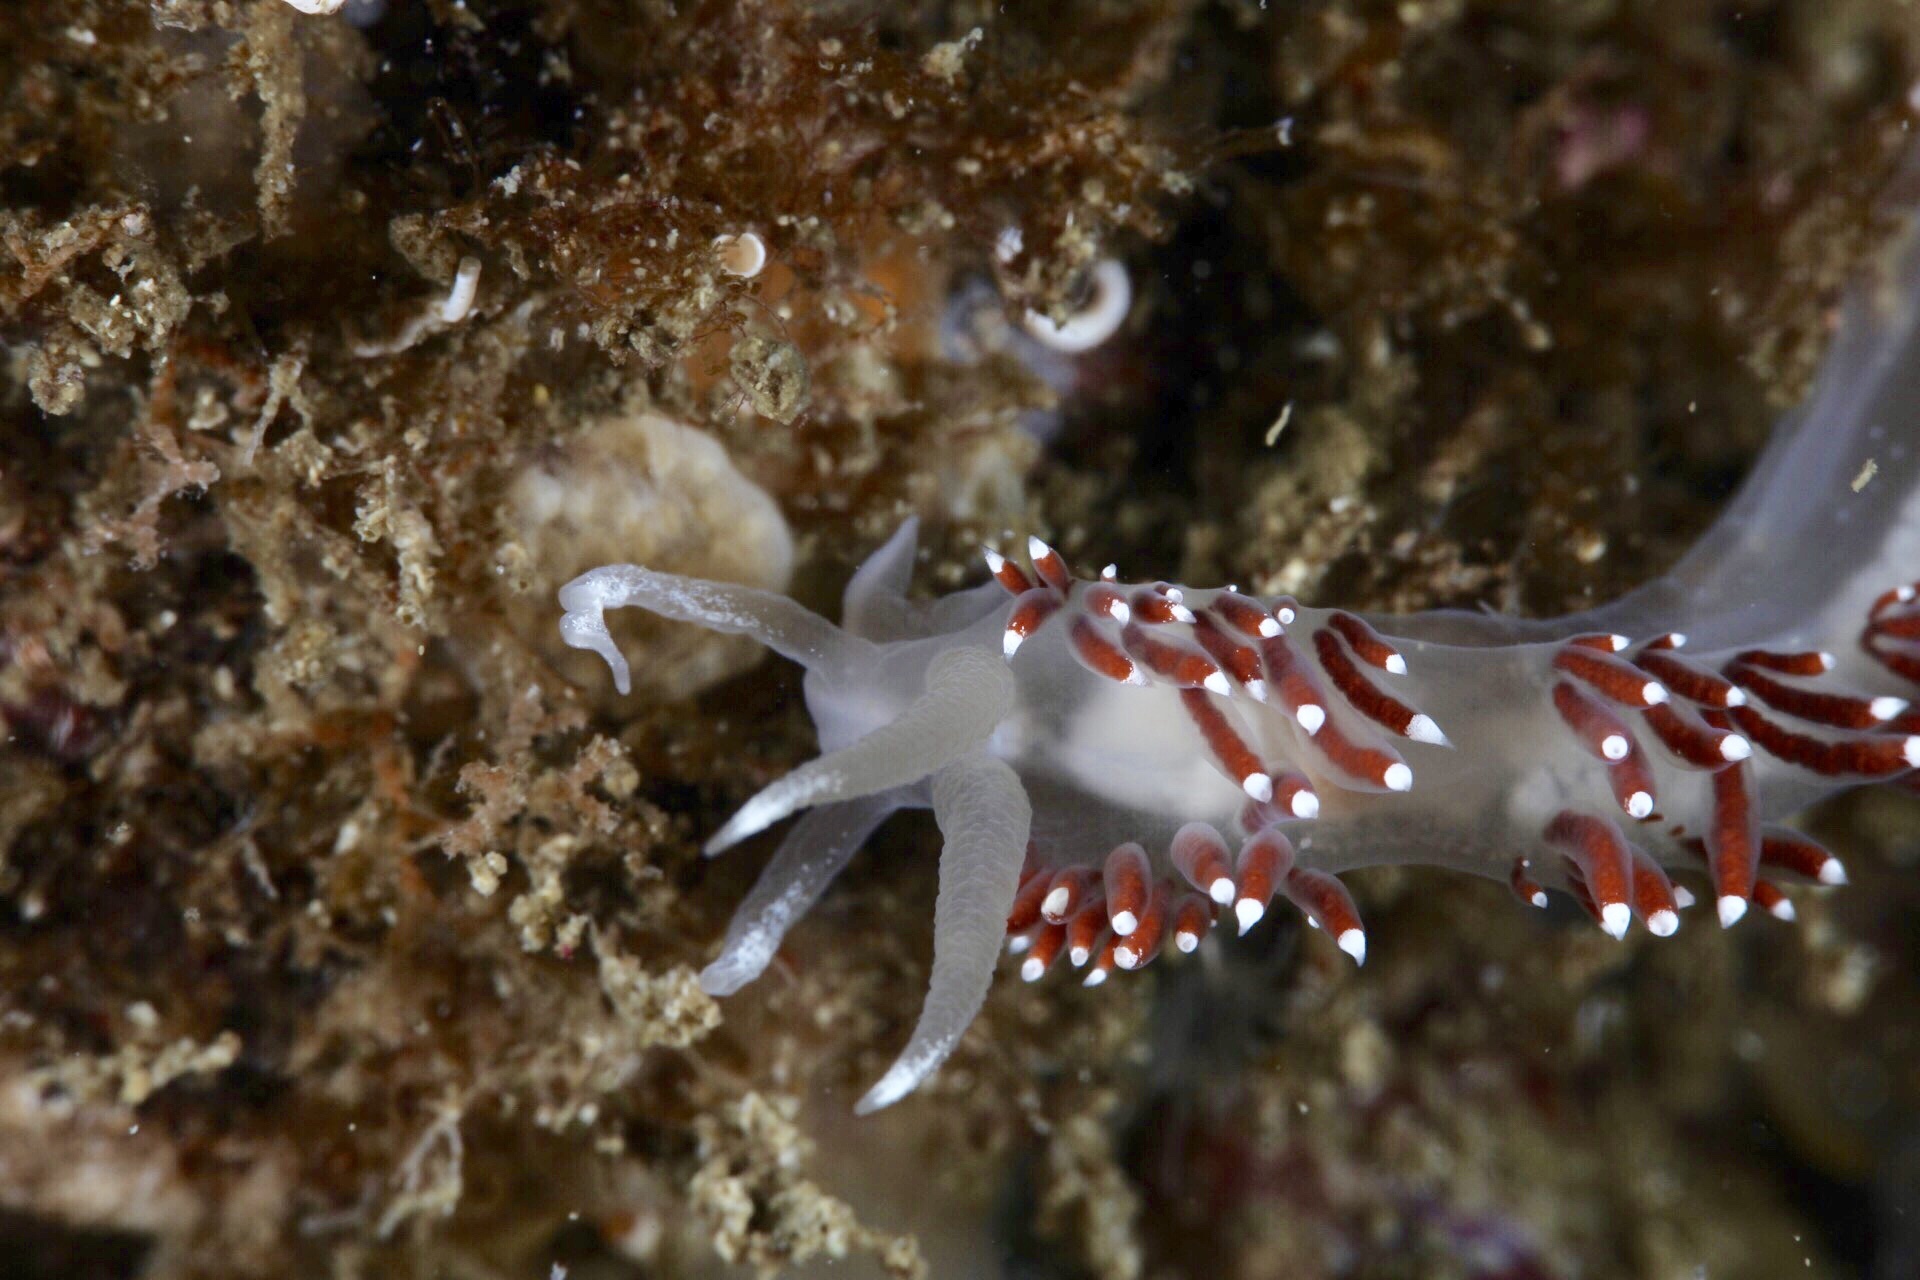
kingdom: Animalia
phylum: Mollusca
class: Gastropoda
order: Nudibranchia
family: Coryphellidae
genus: Coryphella
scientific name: Coryphella verrucosa
